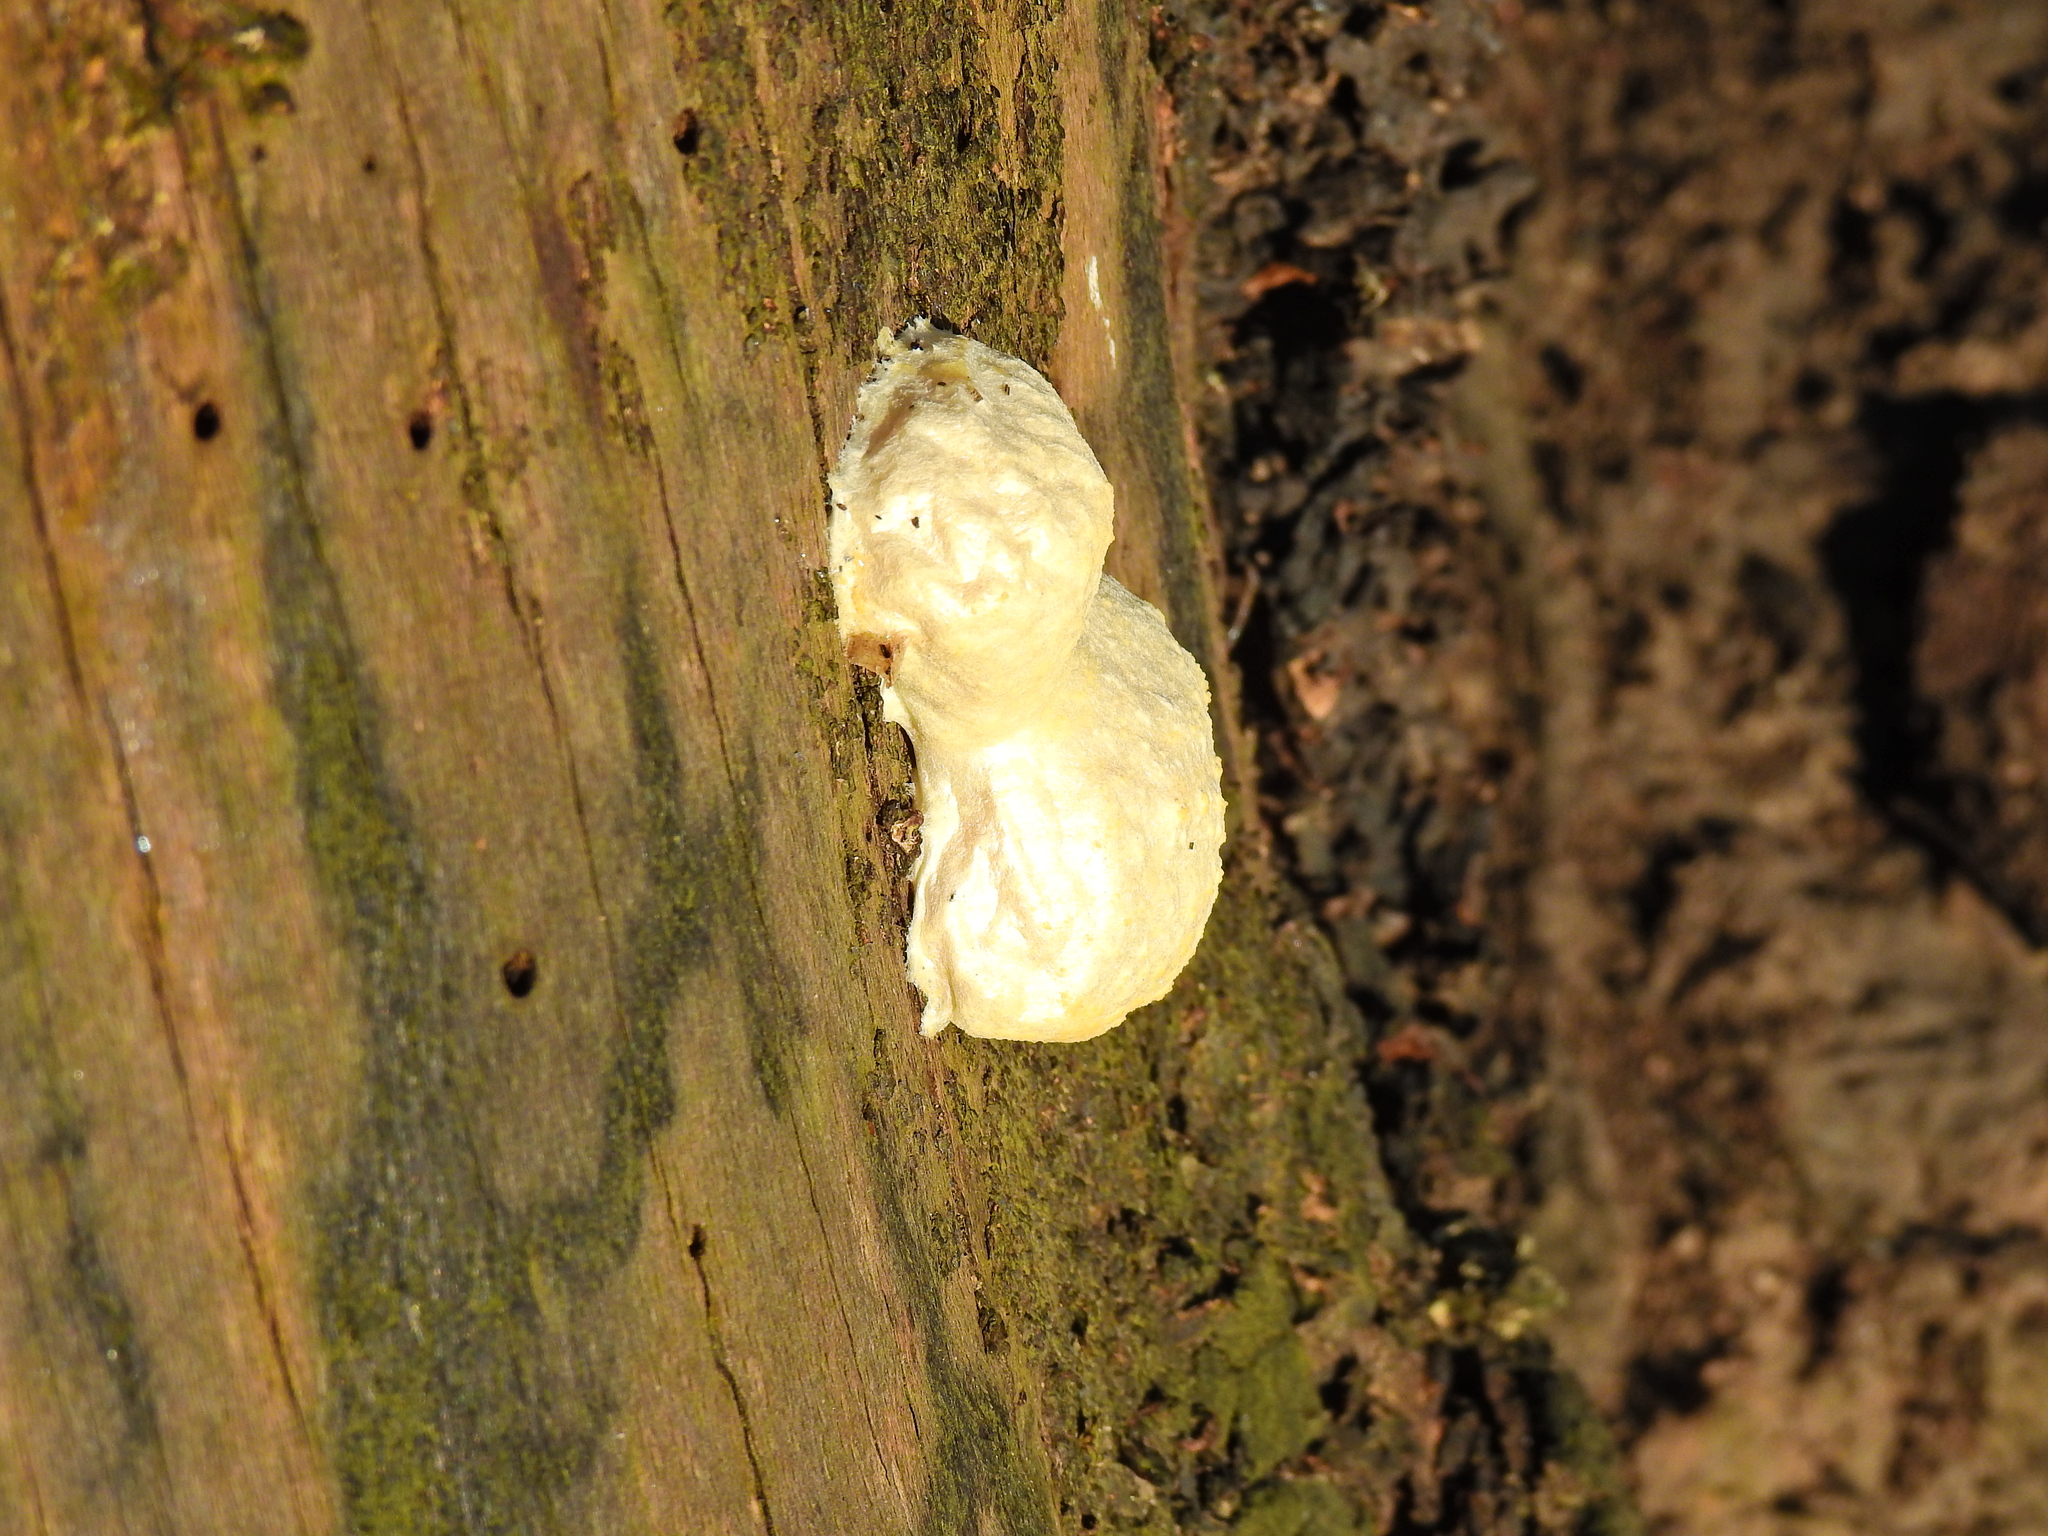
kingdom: Protozoa
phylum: Mycetozoa
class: Myxomycetes
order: Cribrariales
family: Tubiferaceae
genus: Reticularia
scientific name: Reticularia lycoperdon
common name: False puffball
